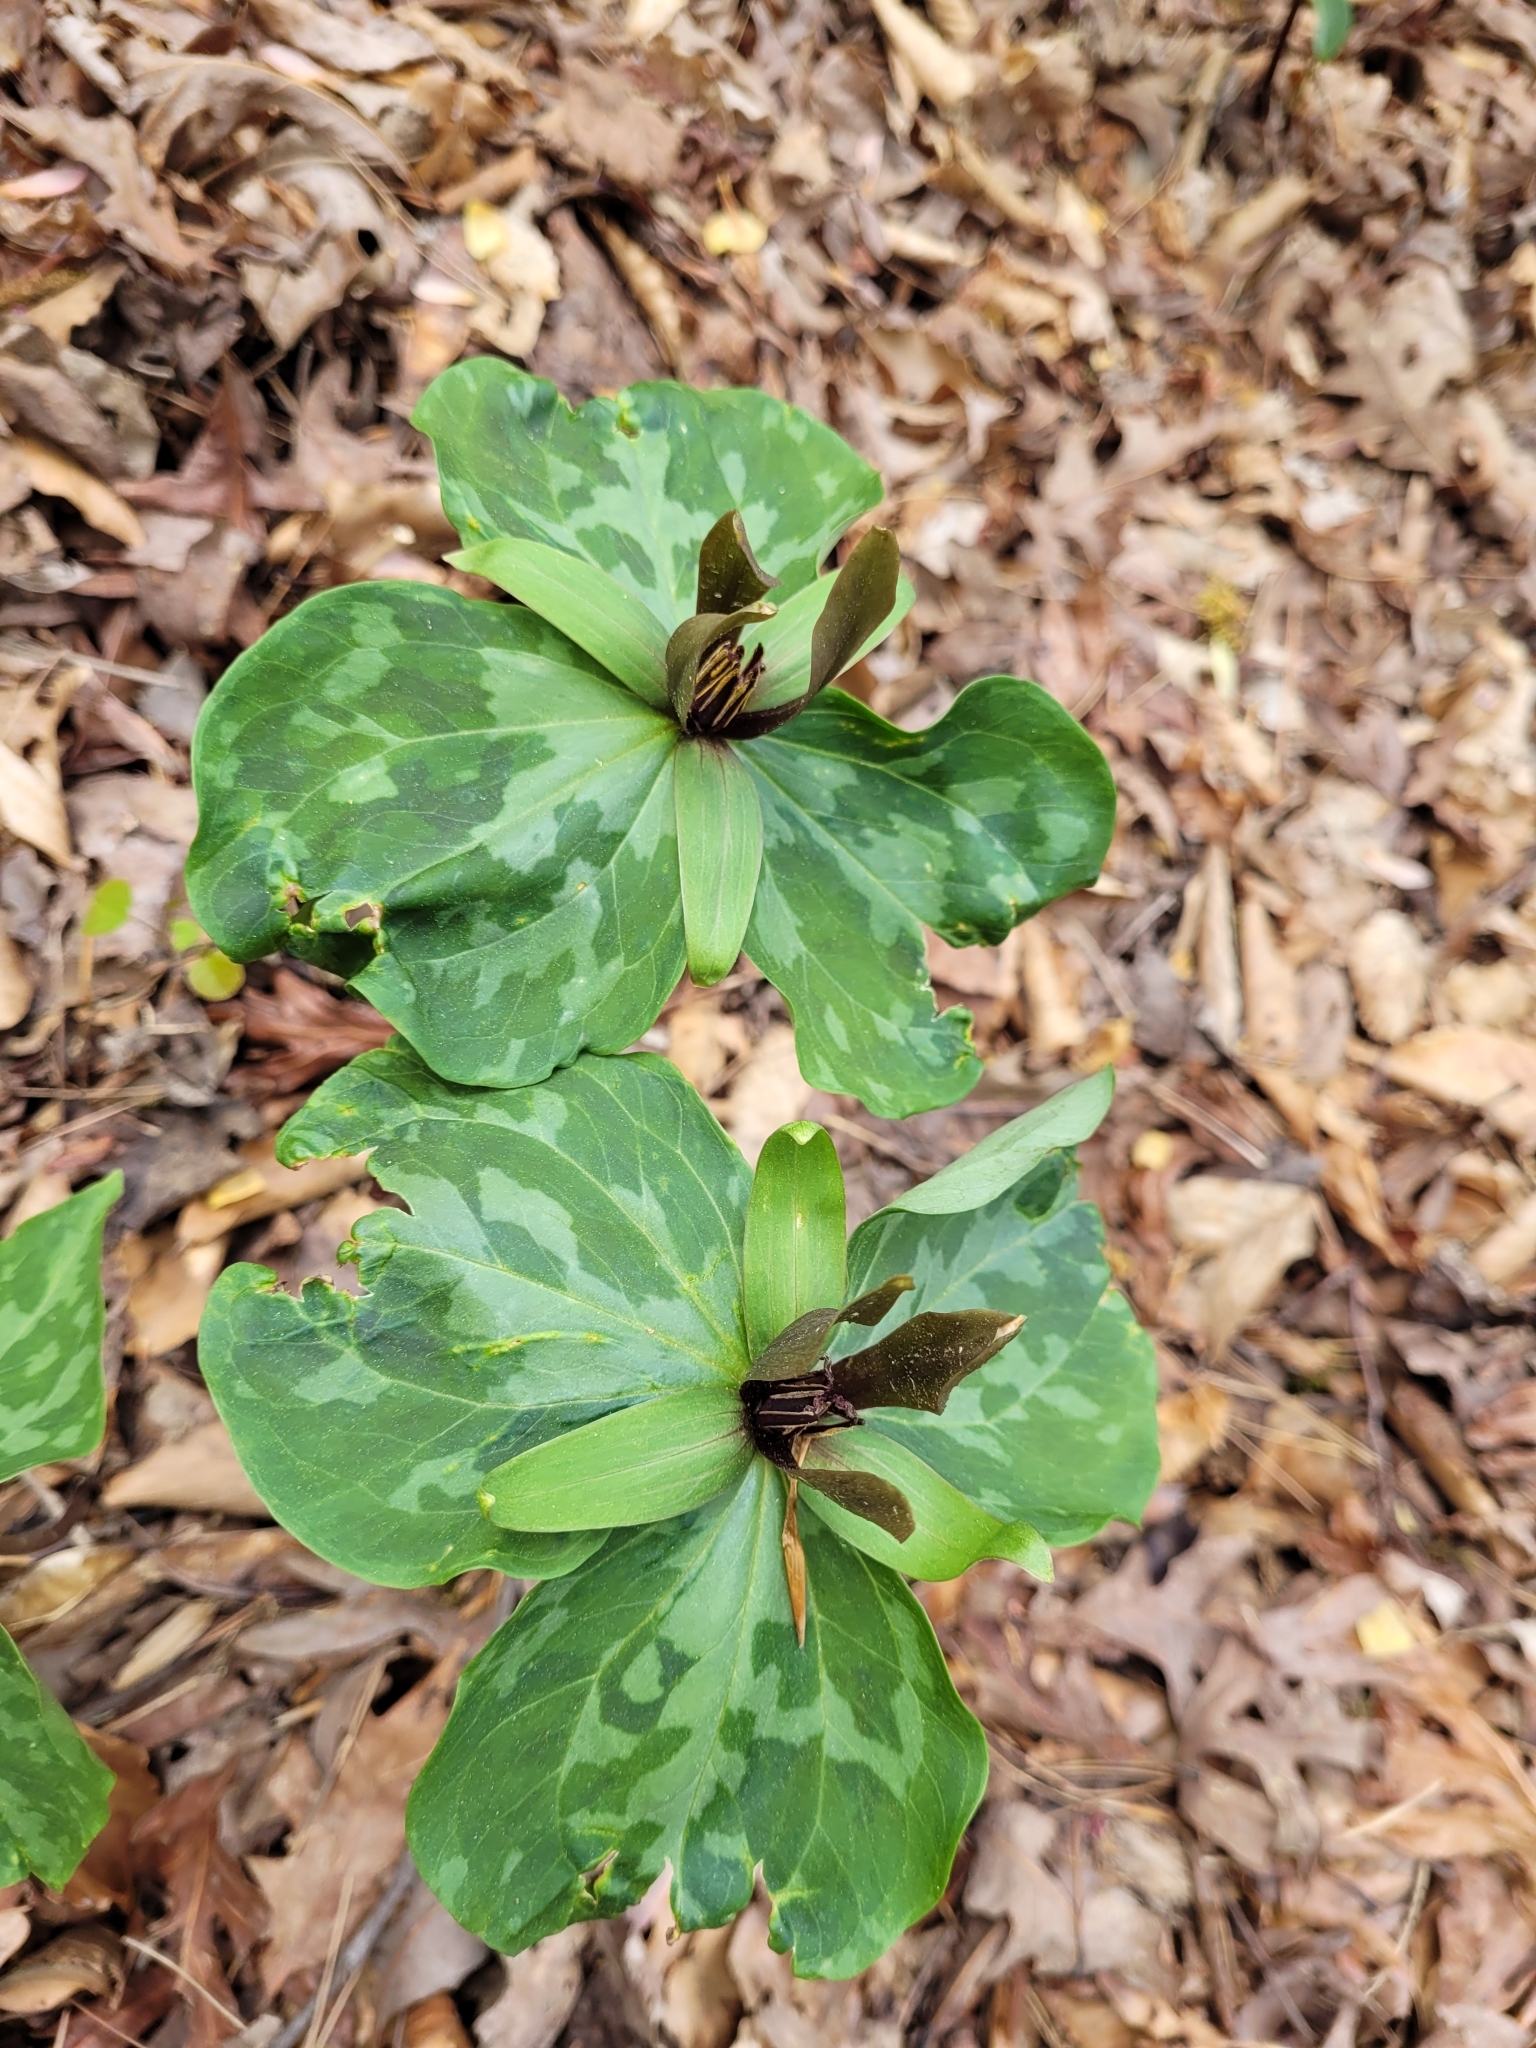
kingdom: Plantae
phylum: Tracheophyta
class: Liliopsida
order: Liliales
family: Melanthiaceae
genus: Trillium
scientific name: Trillium cuneatum
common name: Cuneate trillium
